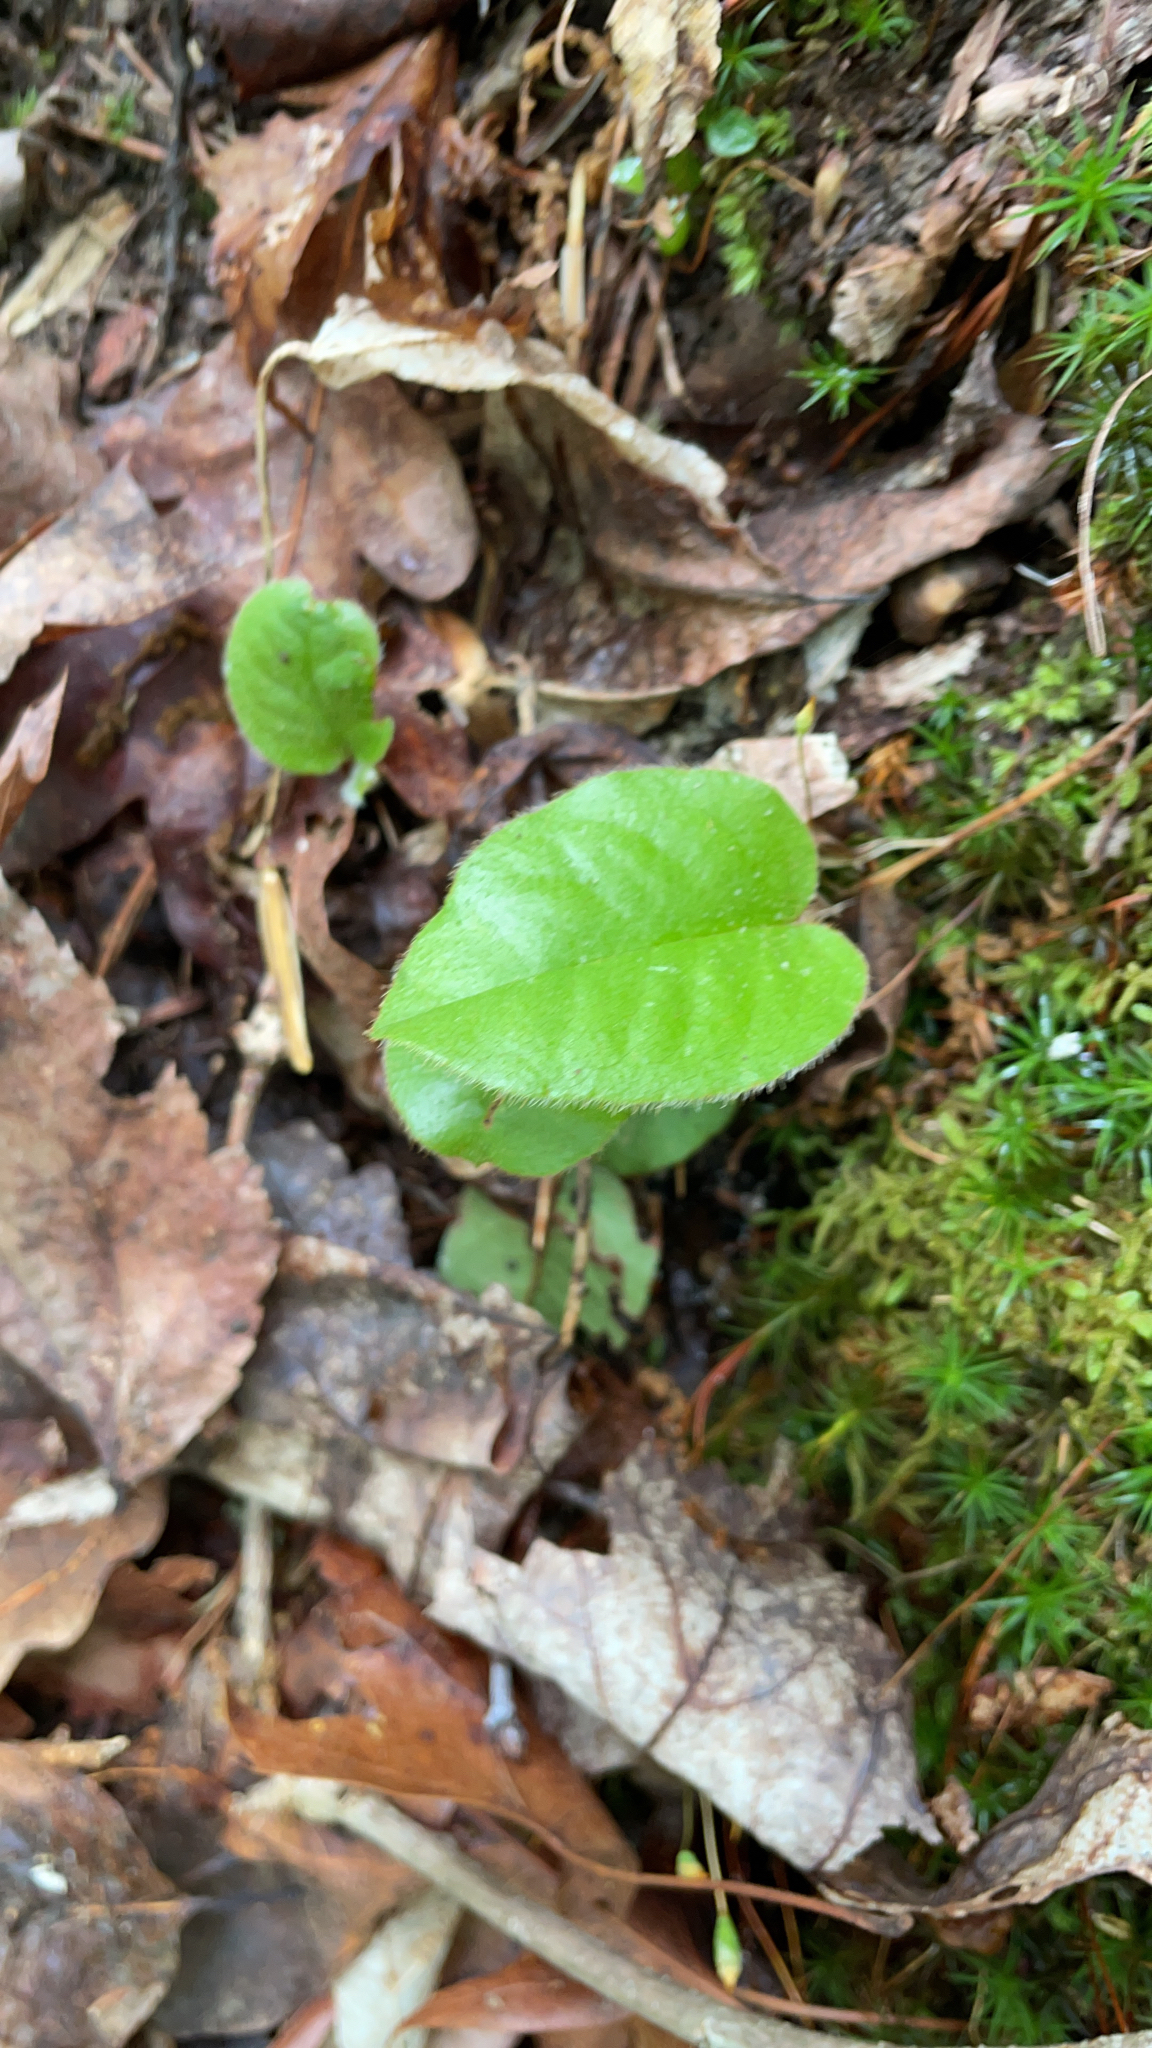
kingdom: Plantae
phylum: Tracheophyta
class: Magnoliopsida
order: Ericales
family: Ericaceae
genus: Epigaea
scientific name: Epigaea repens
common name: Gravelroot
